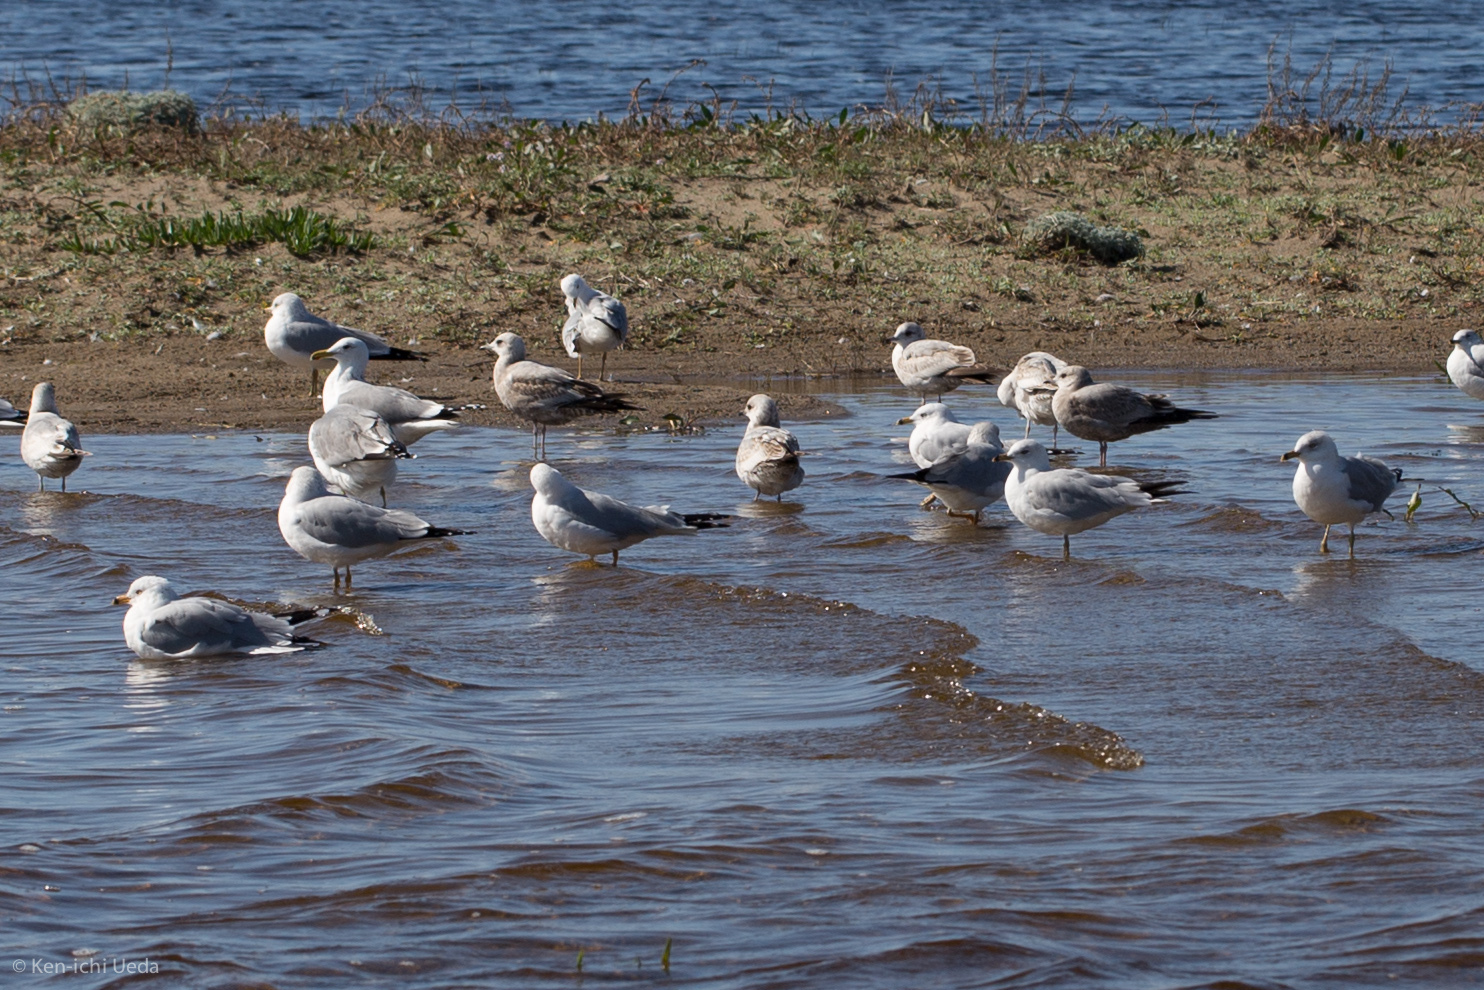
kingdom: Animalia
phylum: Chordata
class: Aves
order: Charadriiformes
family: Laridae
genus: Larus
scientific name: Larus delawarensis
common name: Ring-billed gull
